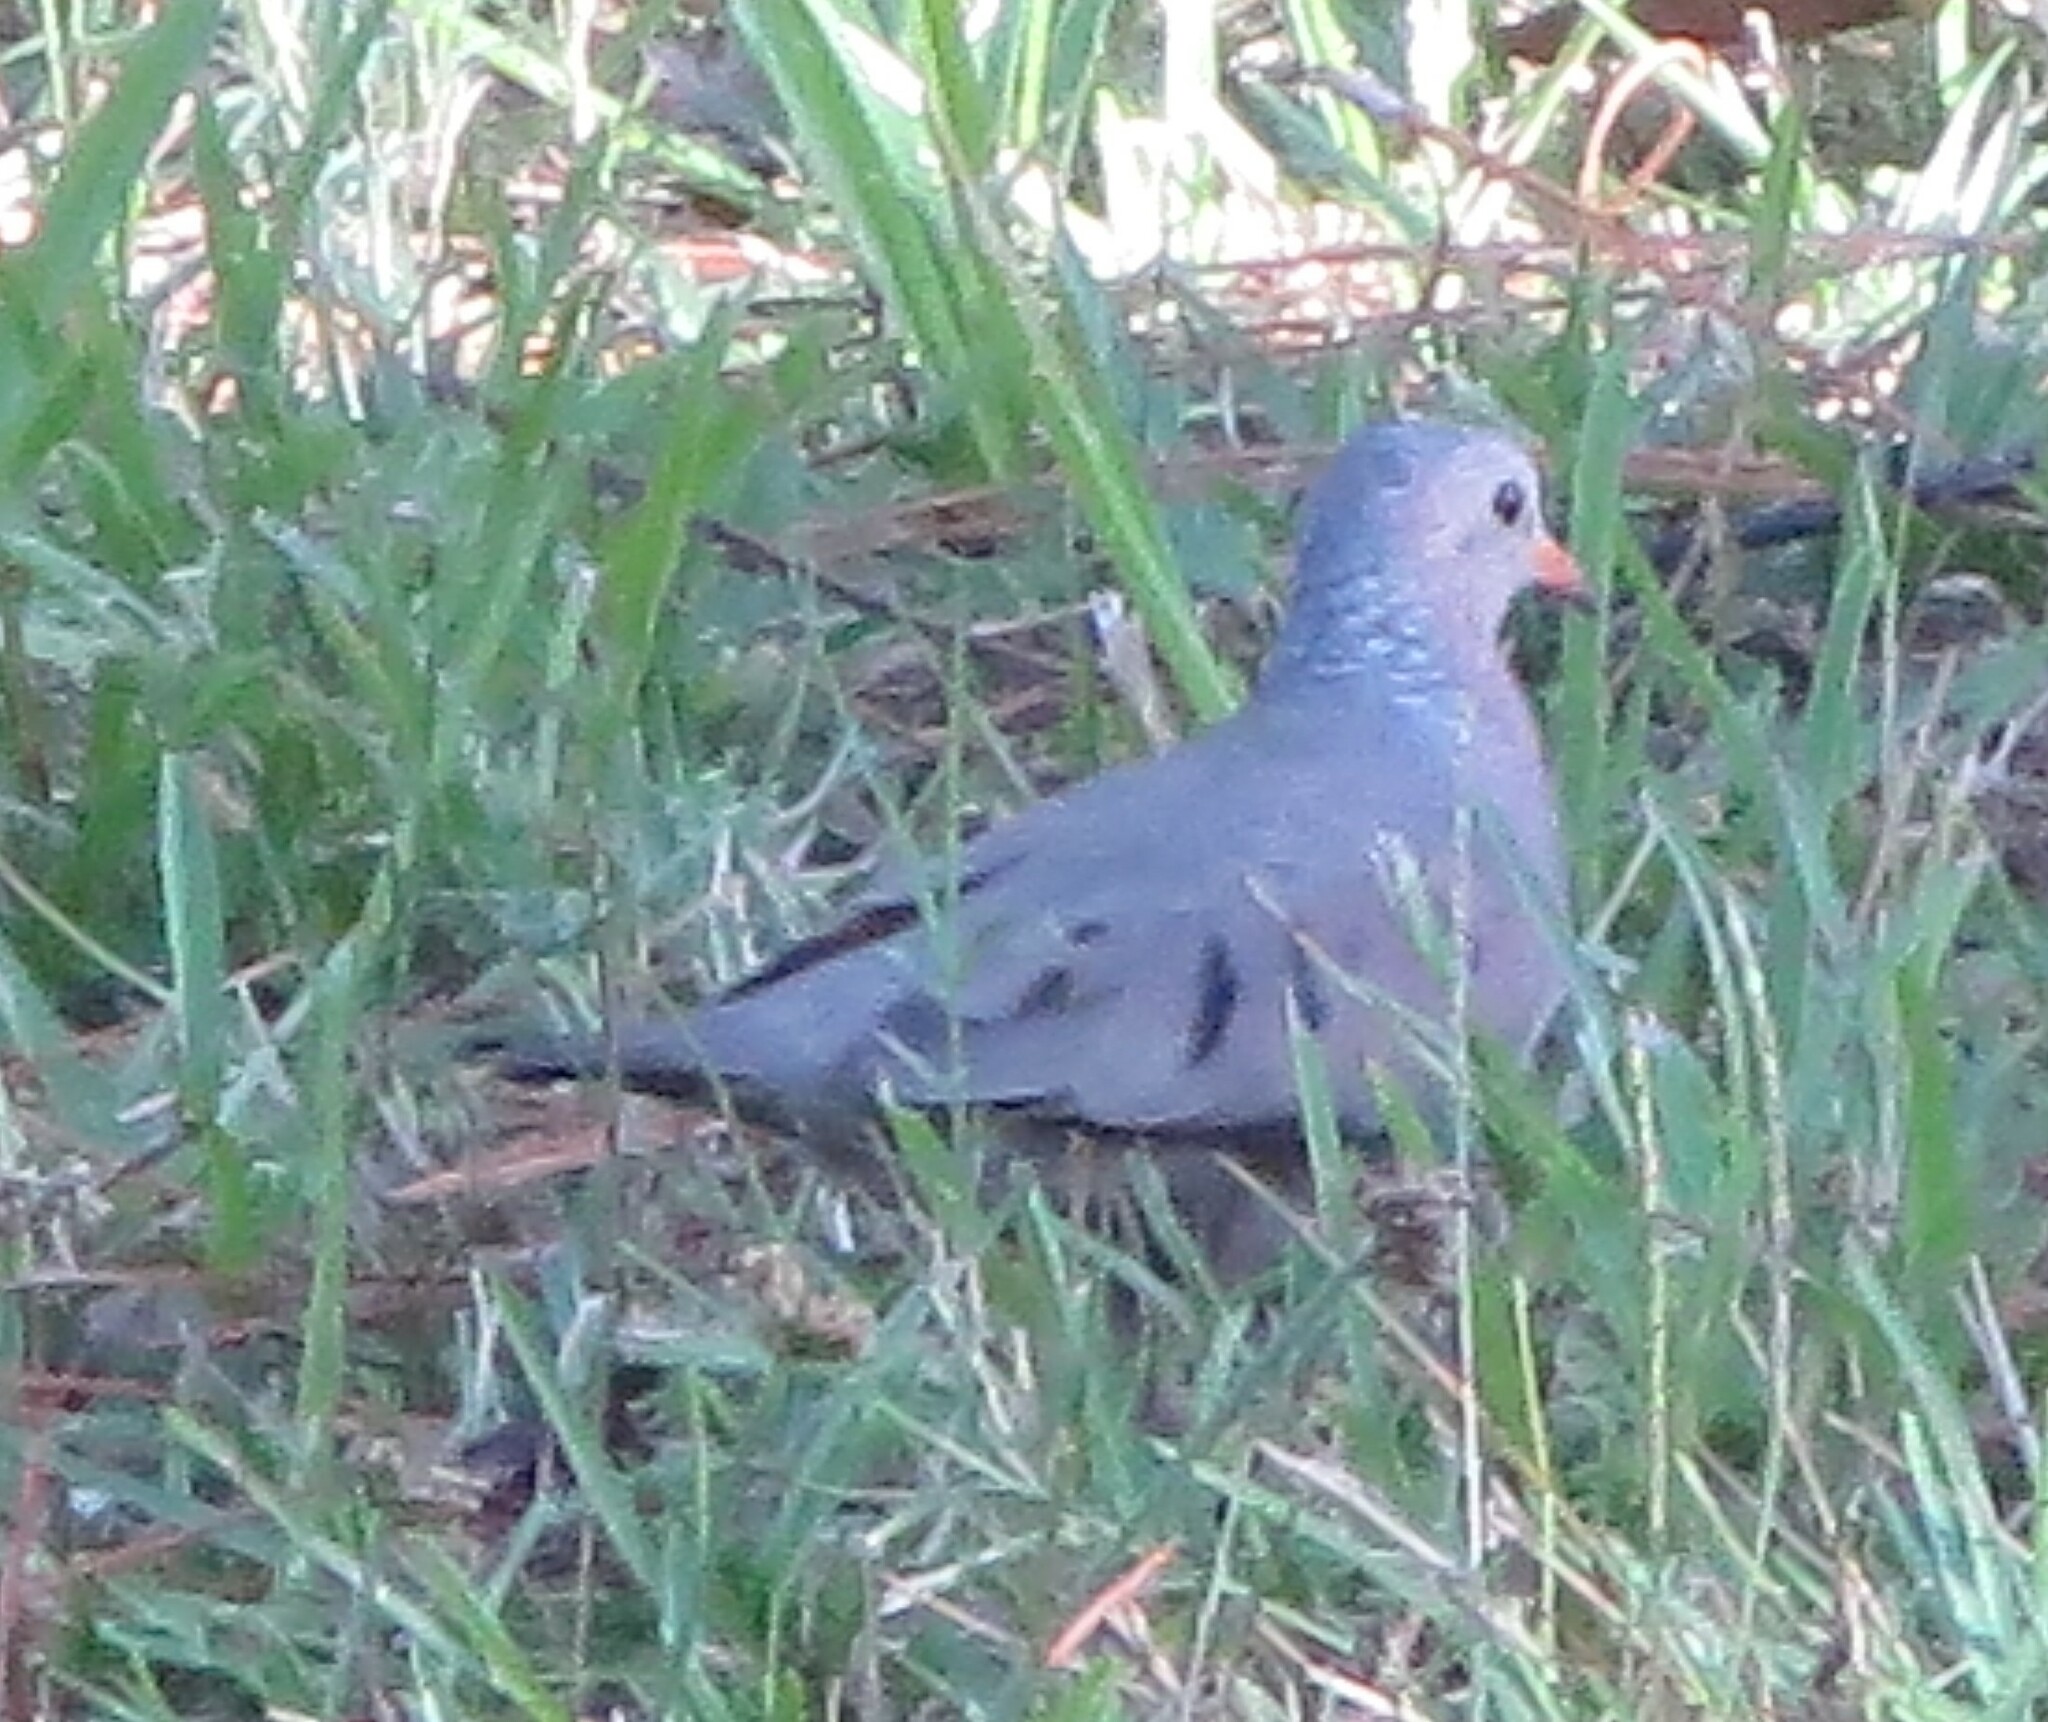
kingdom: Animalia
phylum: Chordata
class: Aves
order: Columbiformes
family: Columbidae
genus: Columbina
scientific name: Columbina passerina
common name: Common ground-dove
